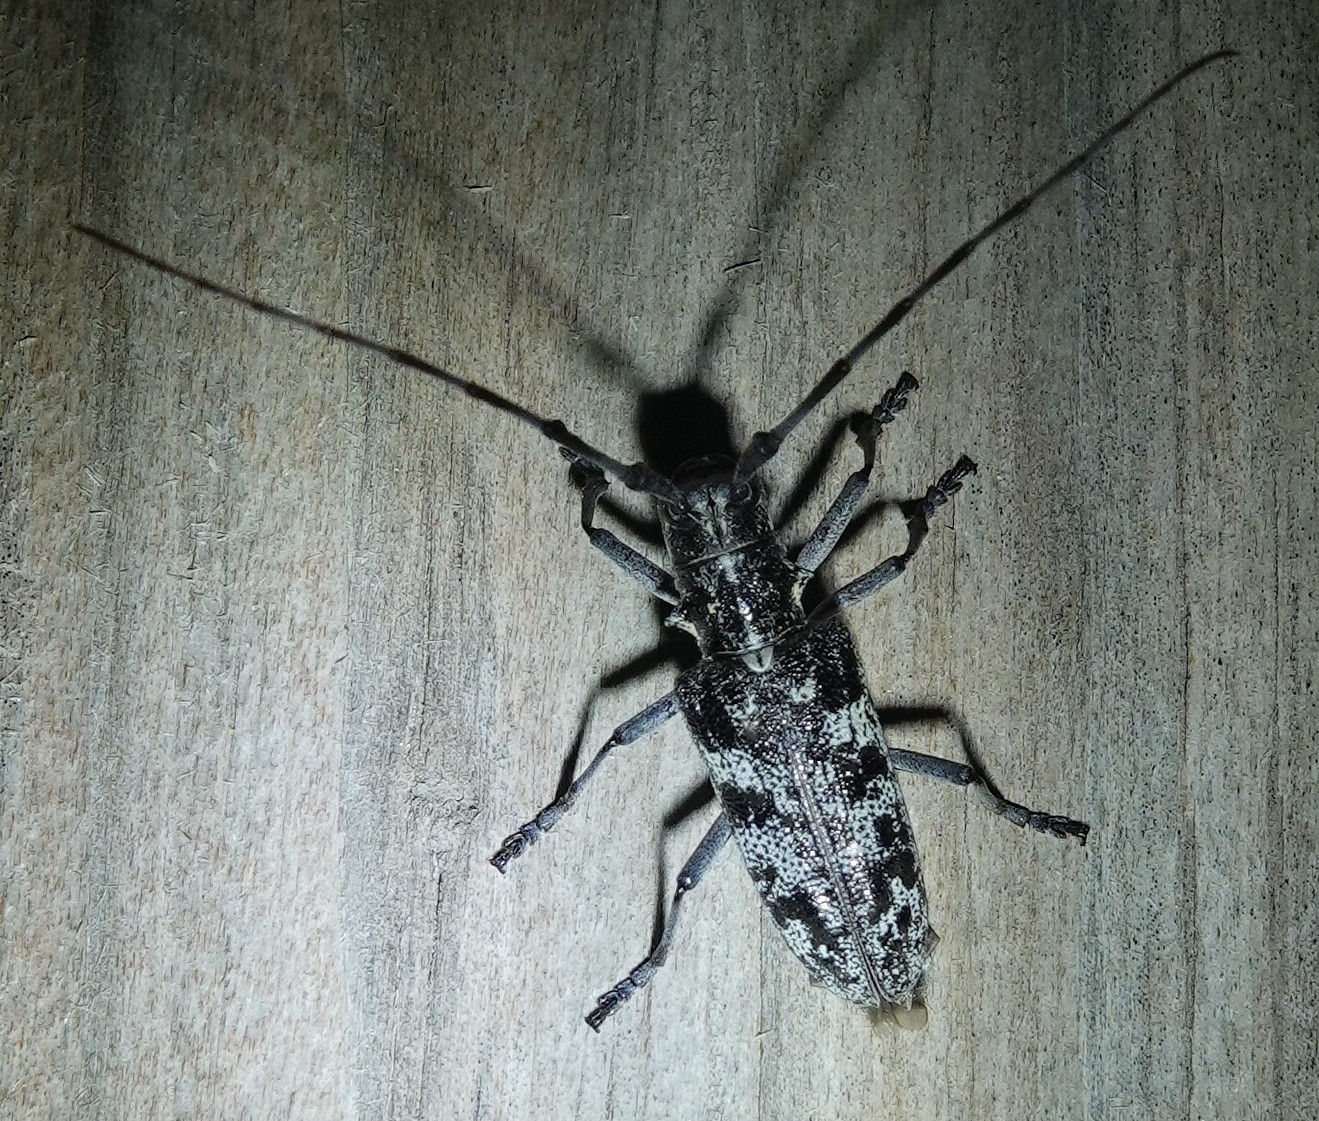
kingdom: Animalia
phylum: Arthropoda
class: Insecta
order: Coleoptera
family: Cerambycidae
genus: Monochamus
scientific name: Monochamus clamator
